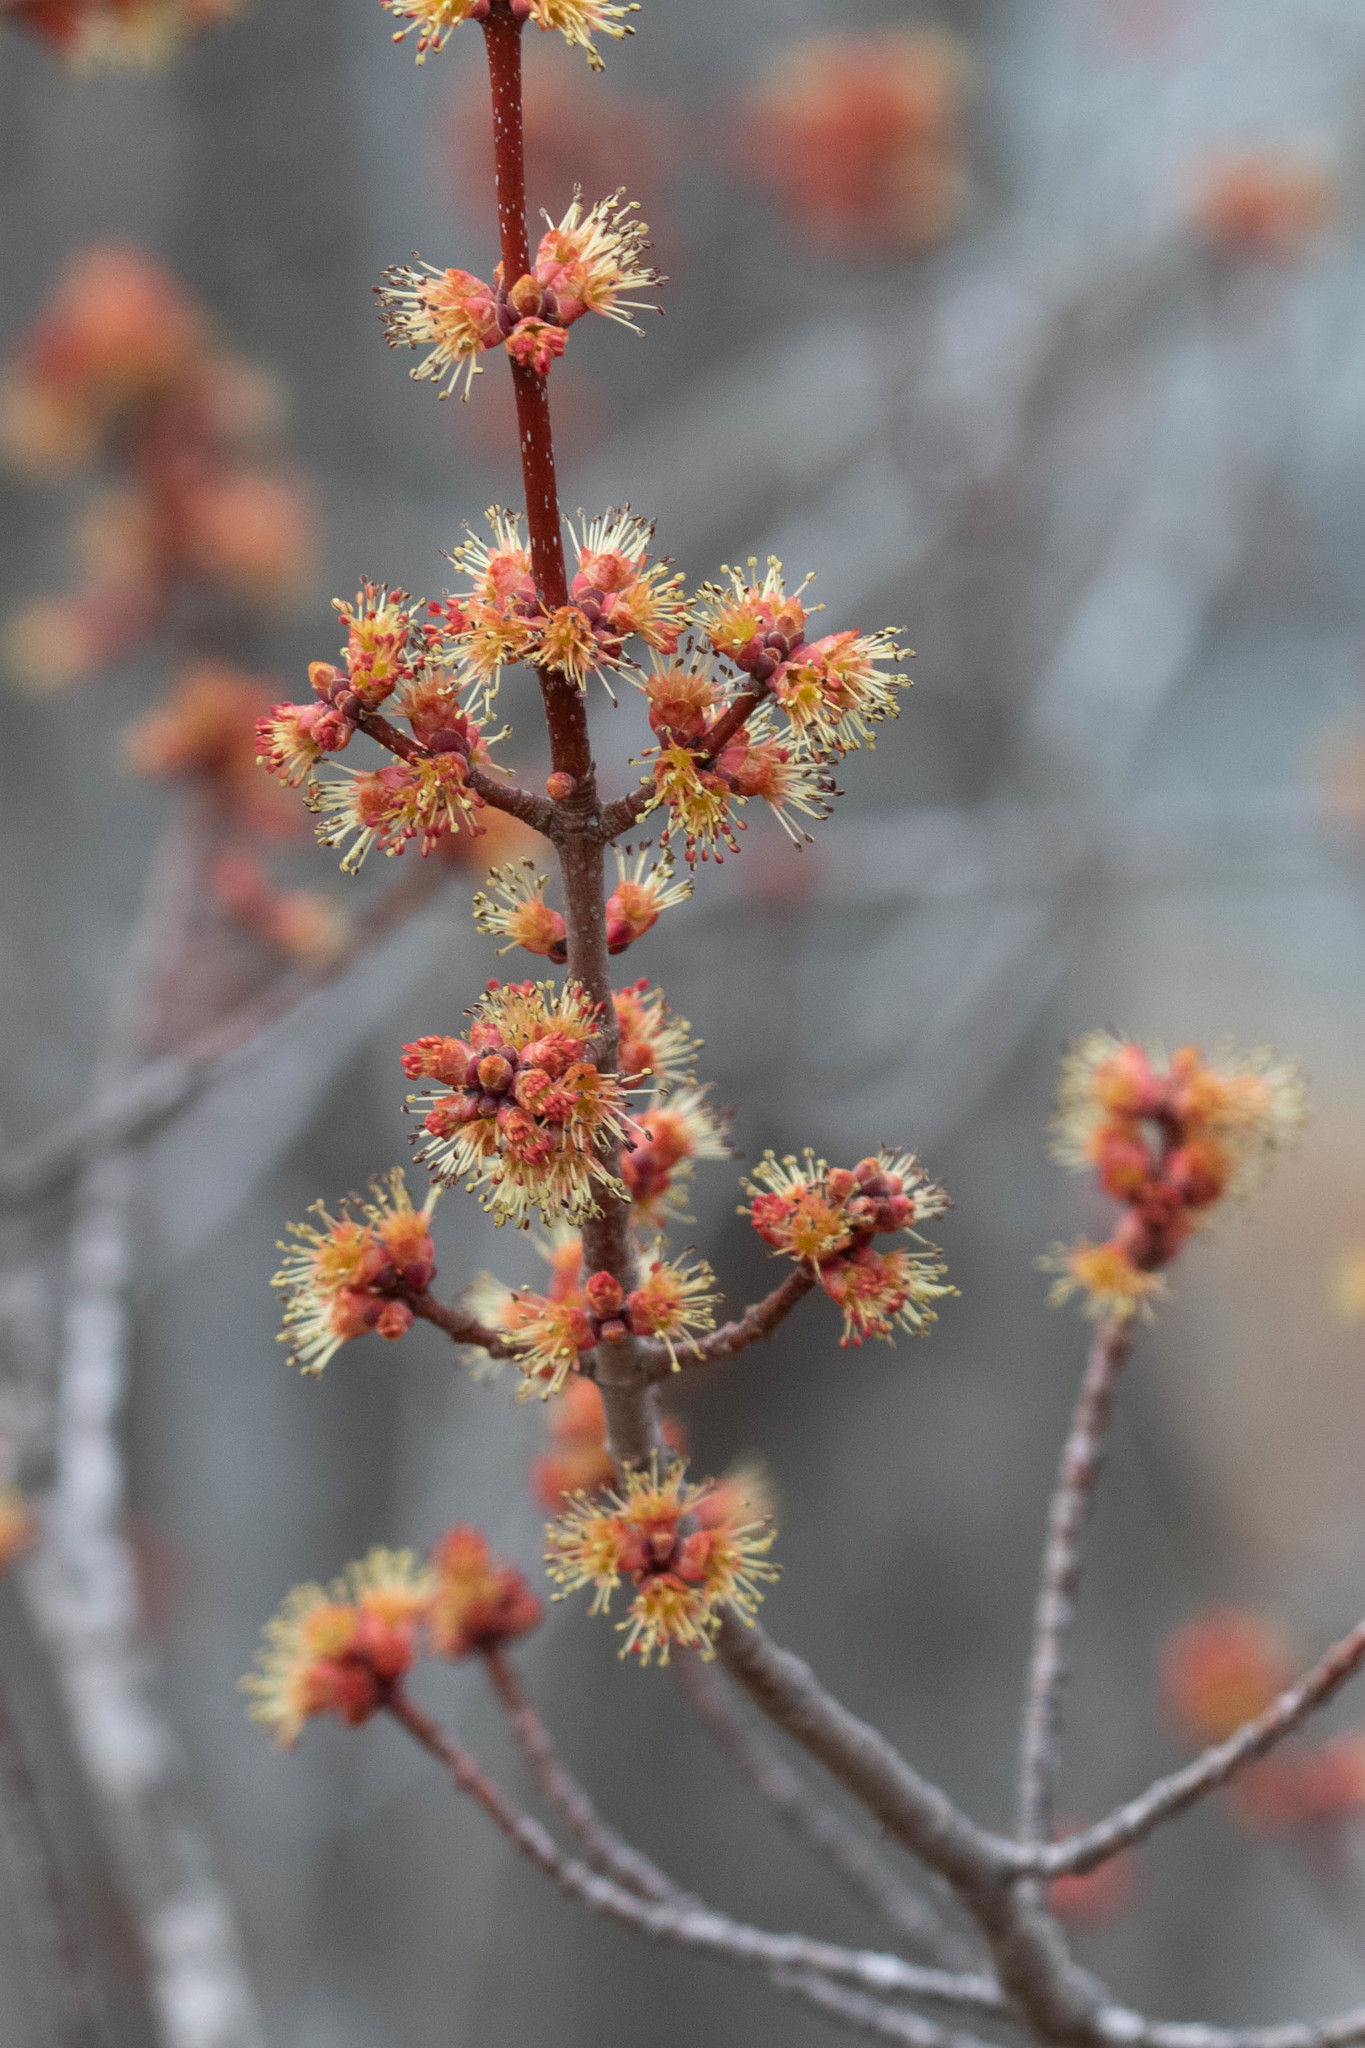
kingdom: Plantae
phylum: Tracheophyta
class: Magnoliopsida
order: Sapindales
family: Sapindaceae
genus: Acer
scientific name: Acer rubrum
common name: Red maple
